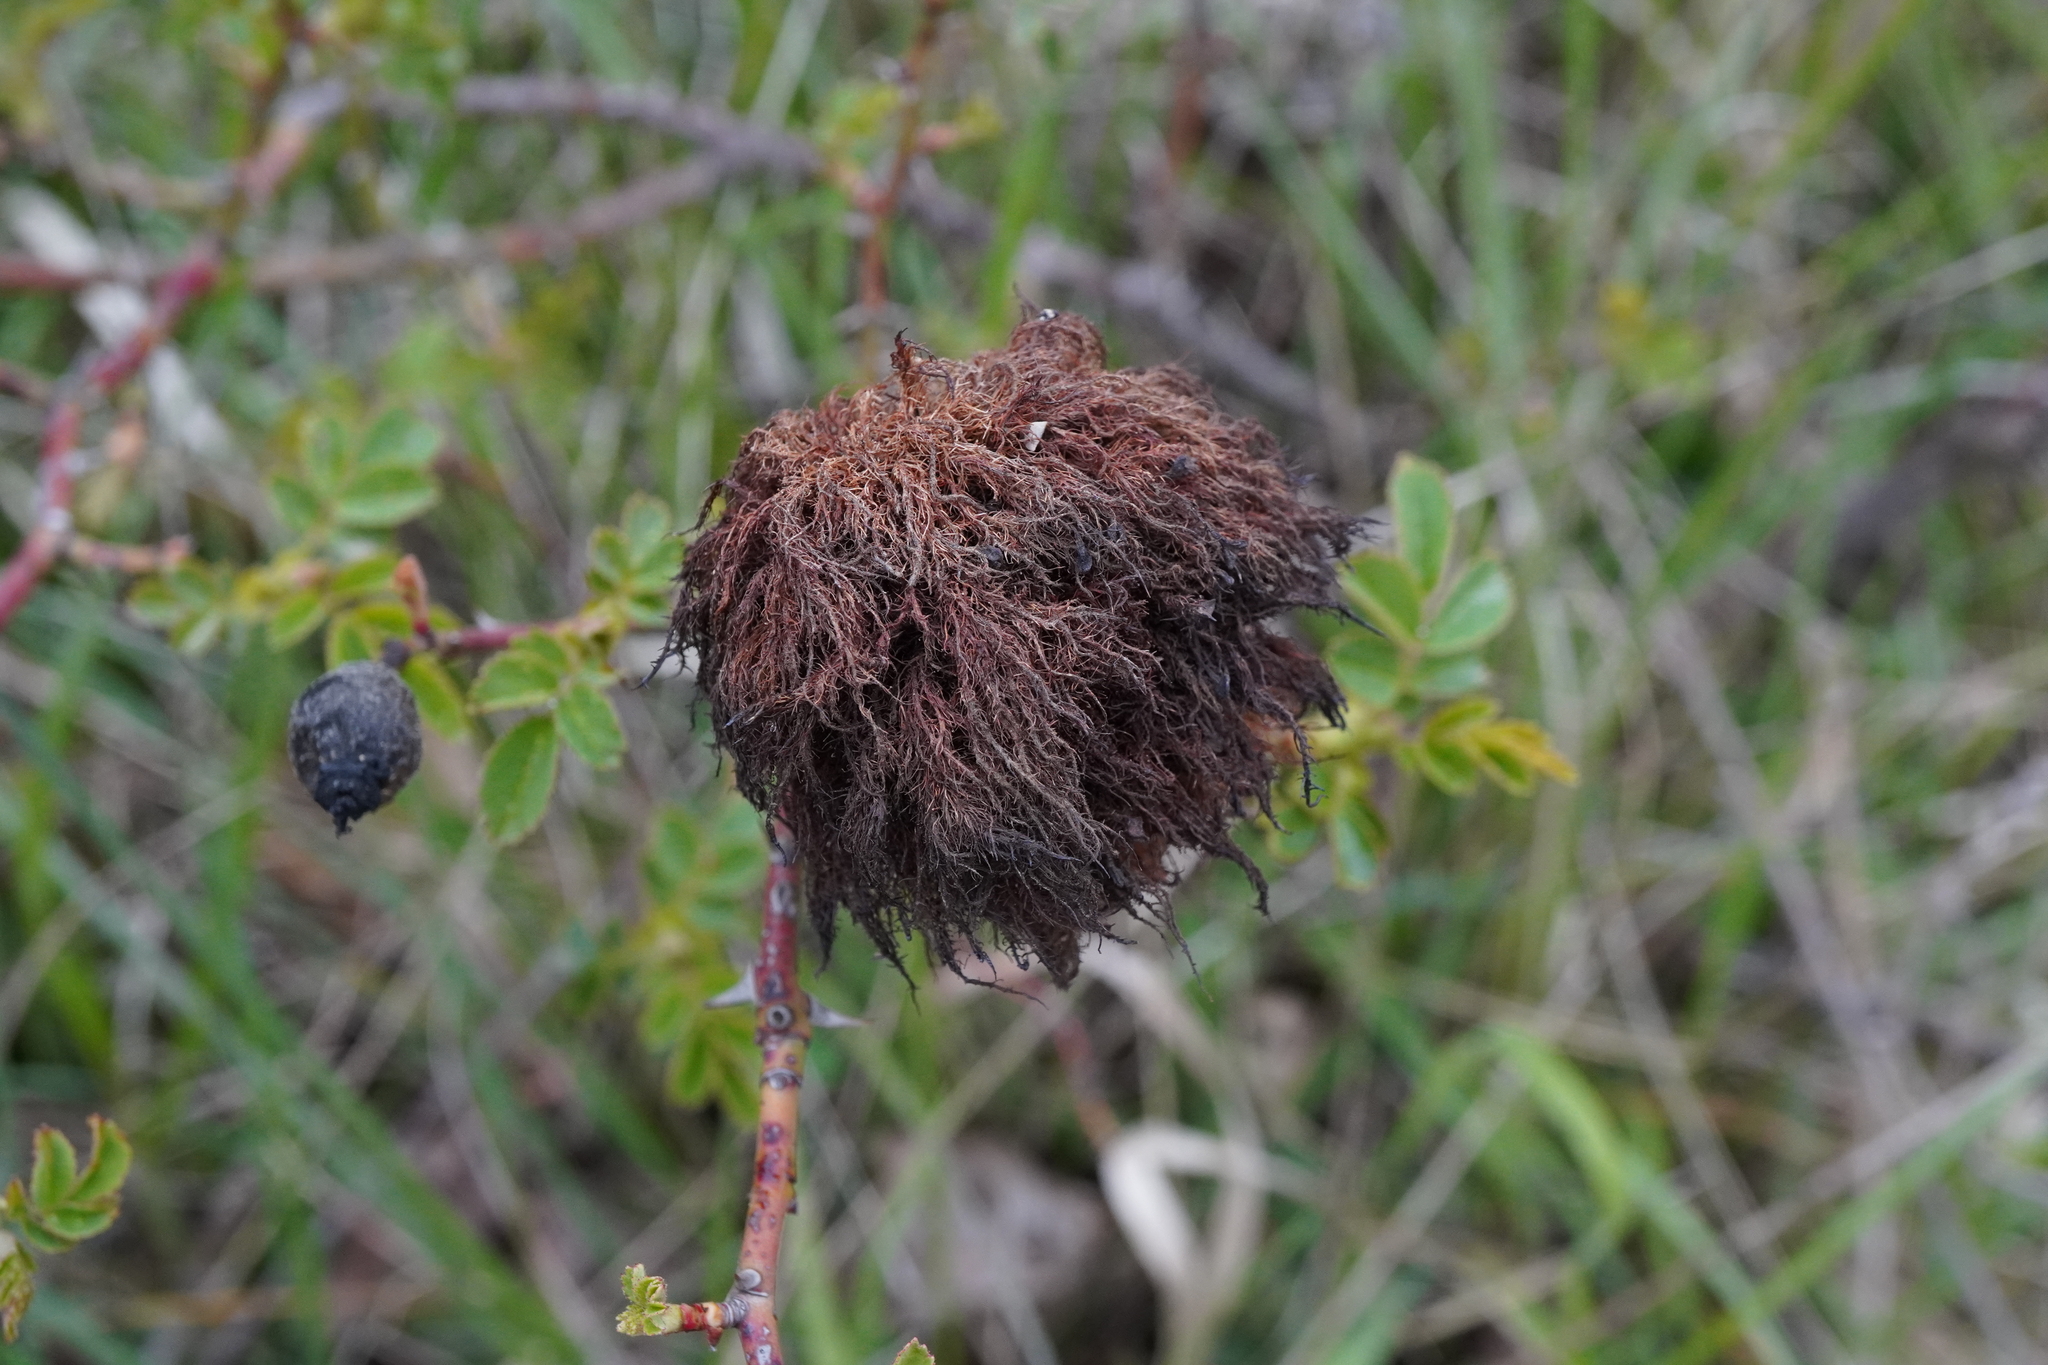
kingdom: Animalia
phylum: Arthropoda
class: Insecta
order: Hymenoptera
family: Cynipidae
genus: Diplolepis
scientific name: Diplolepis rosae
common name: Bedeguar gall
